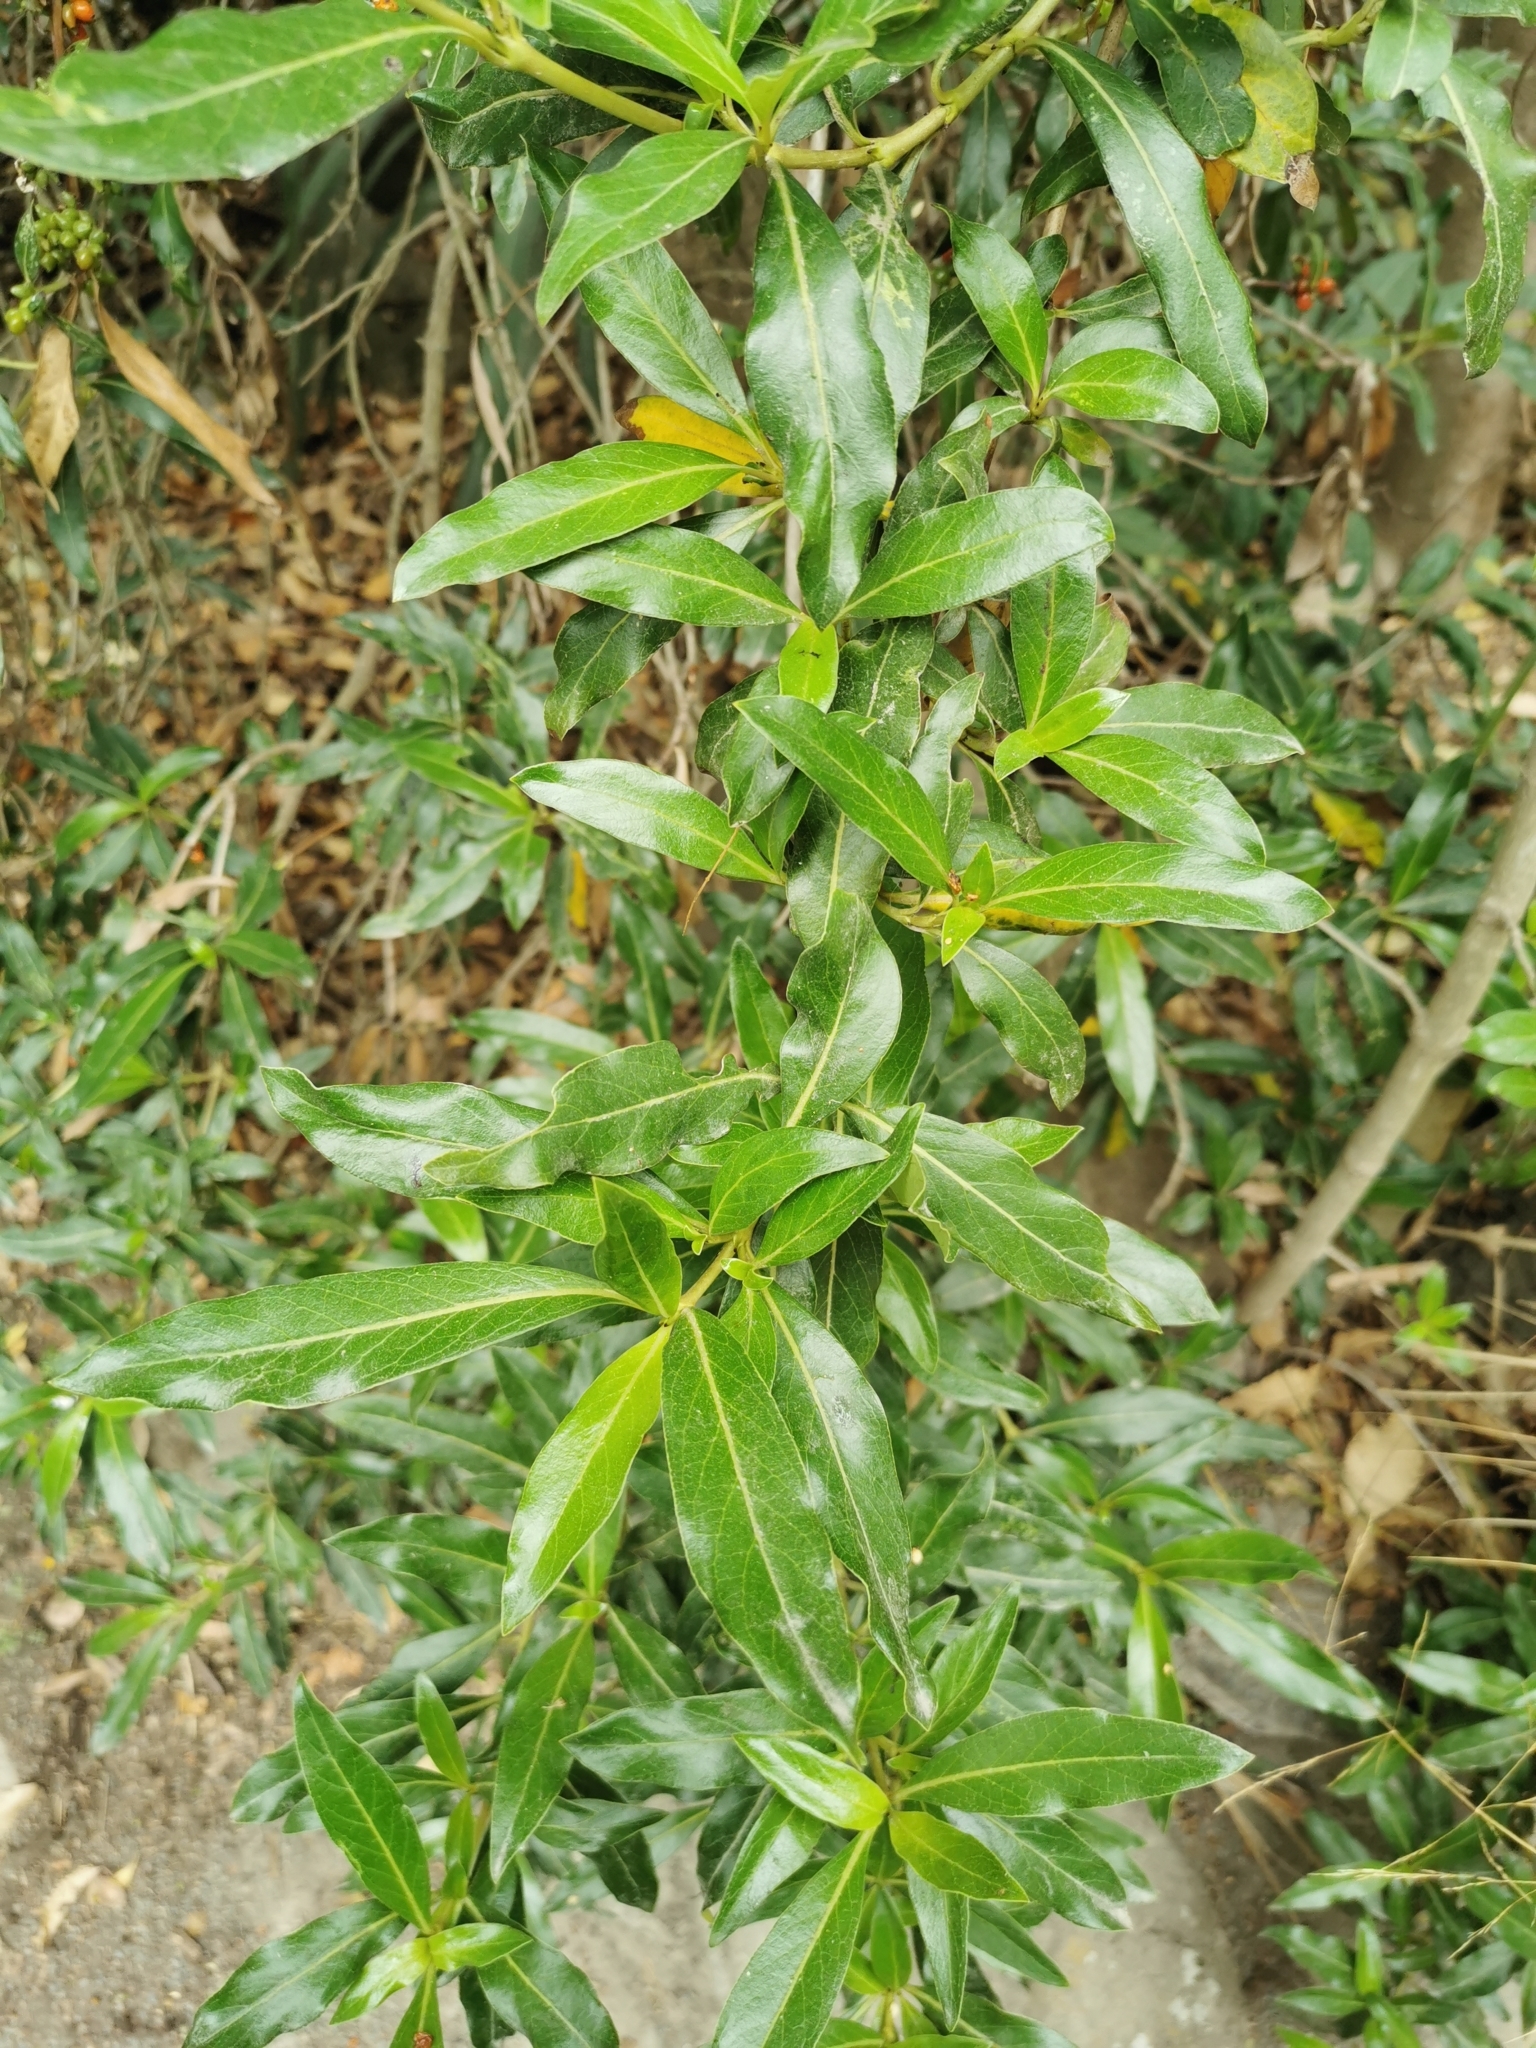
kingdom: Plantae
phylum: Tracheophyta
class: Magnoliopsida
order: Gentianales
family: Rubiaceae
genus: Coprosma
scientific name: Coprosma cunninghamii
